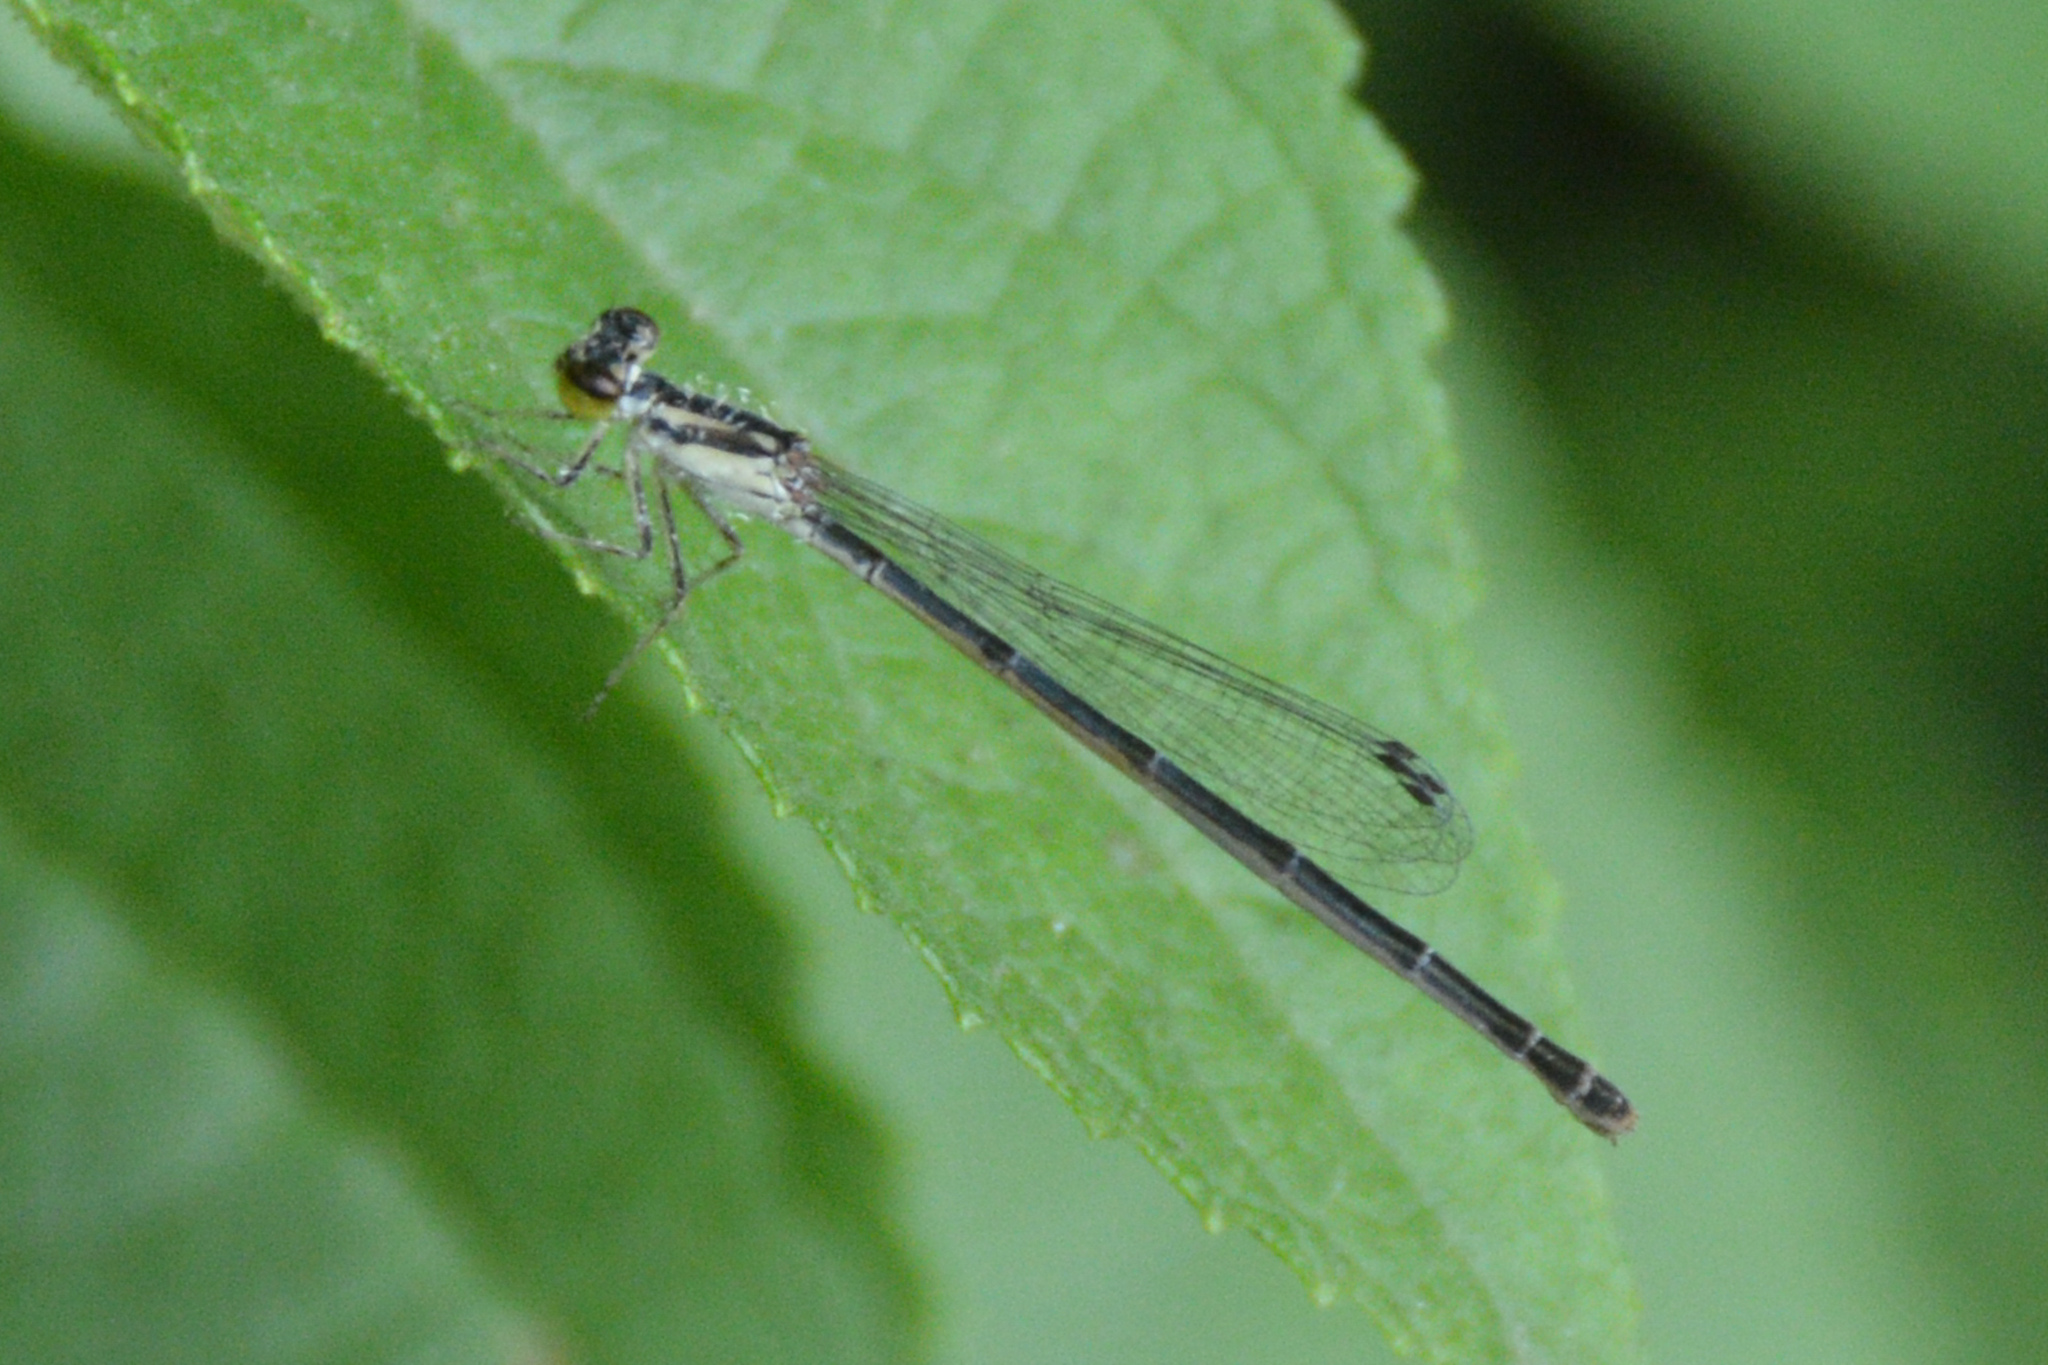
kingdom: Animalia
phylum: Arthropoda
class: Insecta
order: Odonata
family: Coenagrionidae
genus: Ischnura
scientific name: Ischnura posita
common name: Fragile forktail
